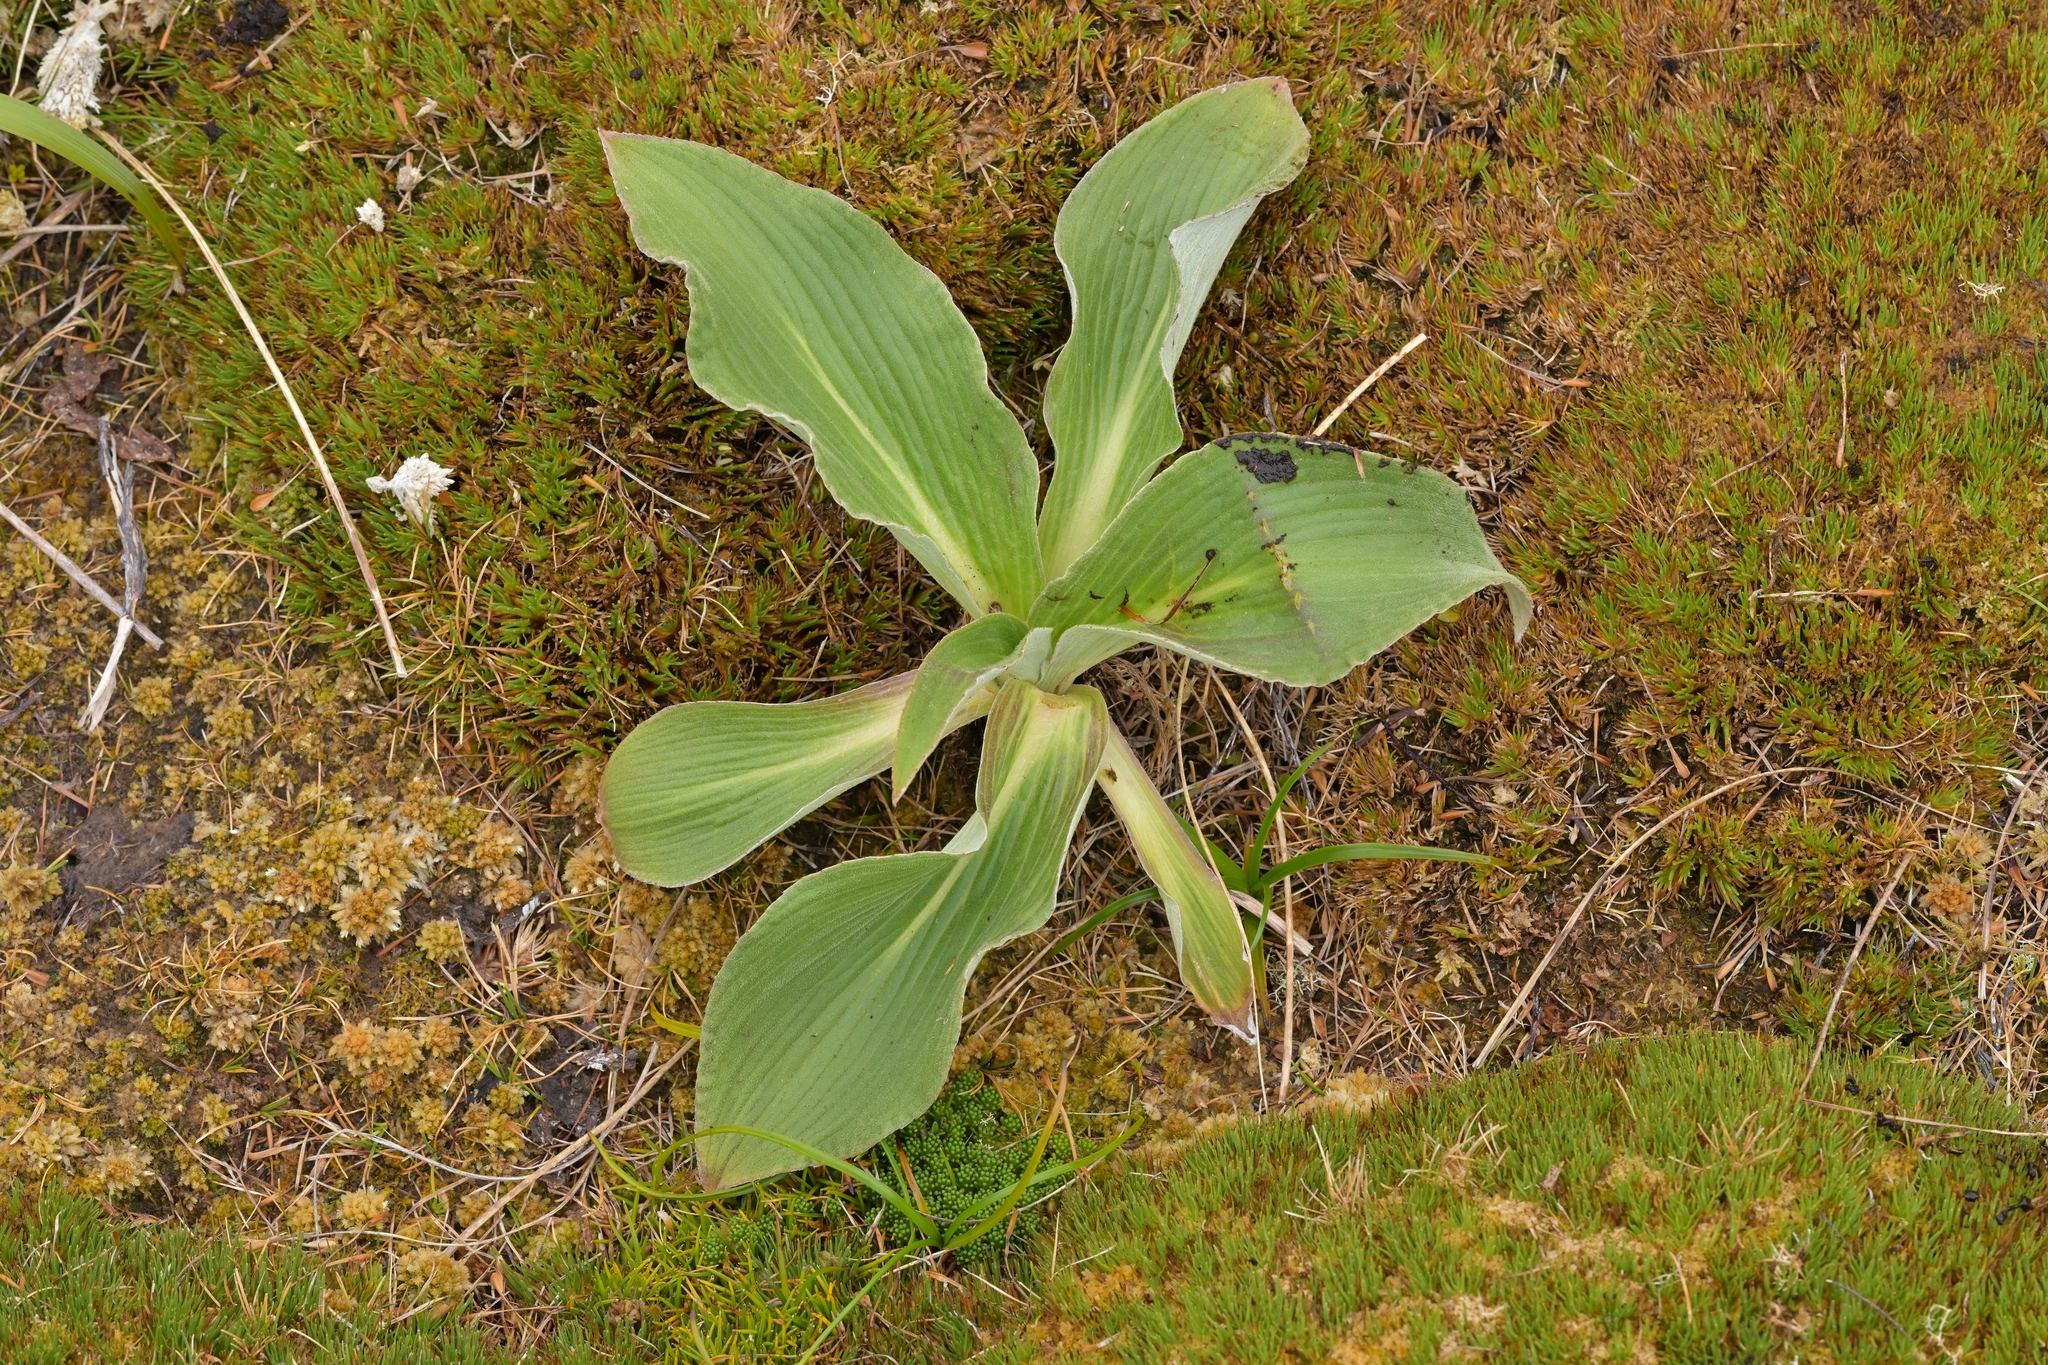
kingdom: Plantae
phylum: Tracheophyta
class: Magnoliopsida
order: Asterales
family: Asteraceae
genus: Pleurophyllum
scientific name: Pleurophyllum criniferum
